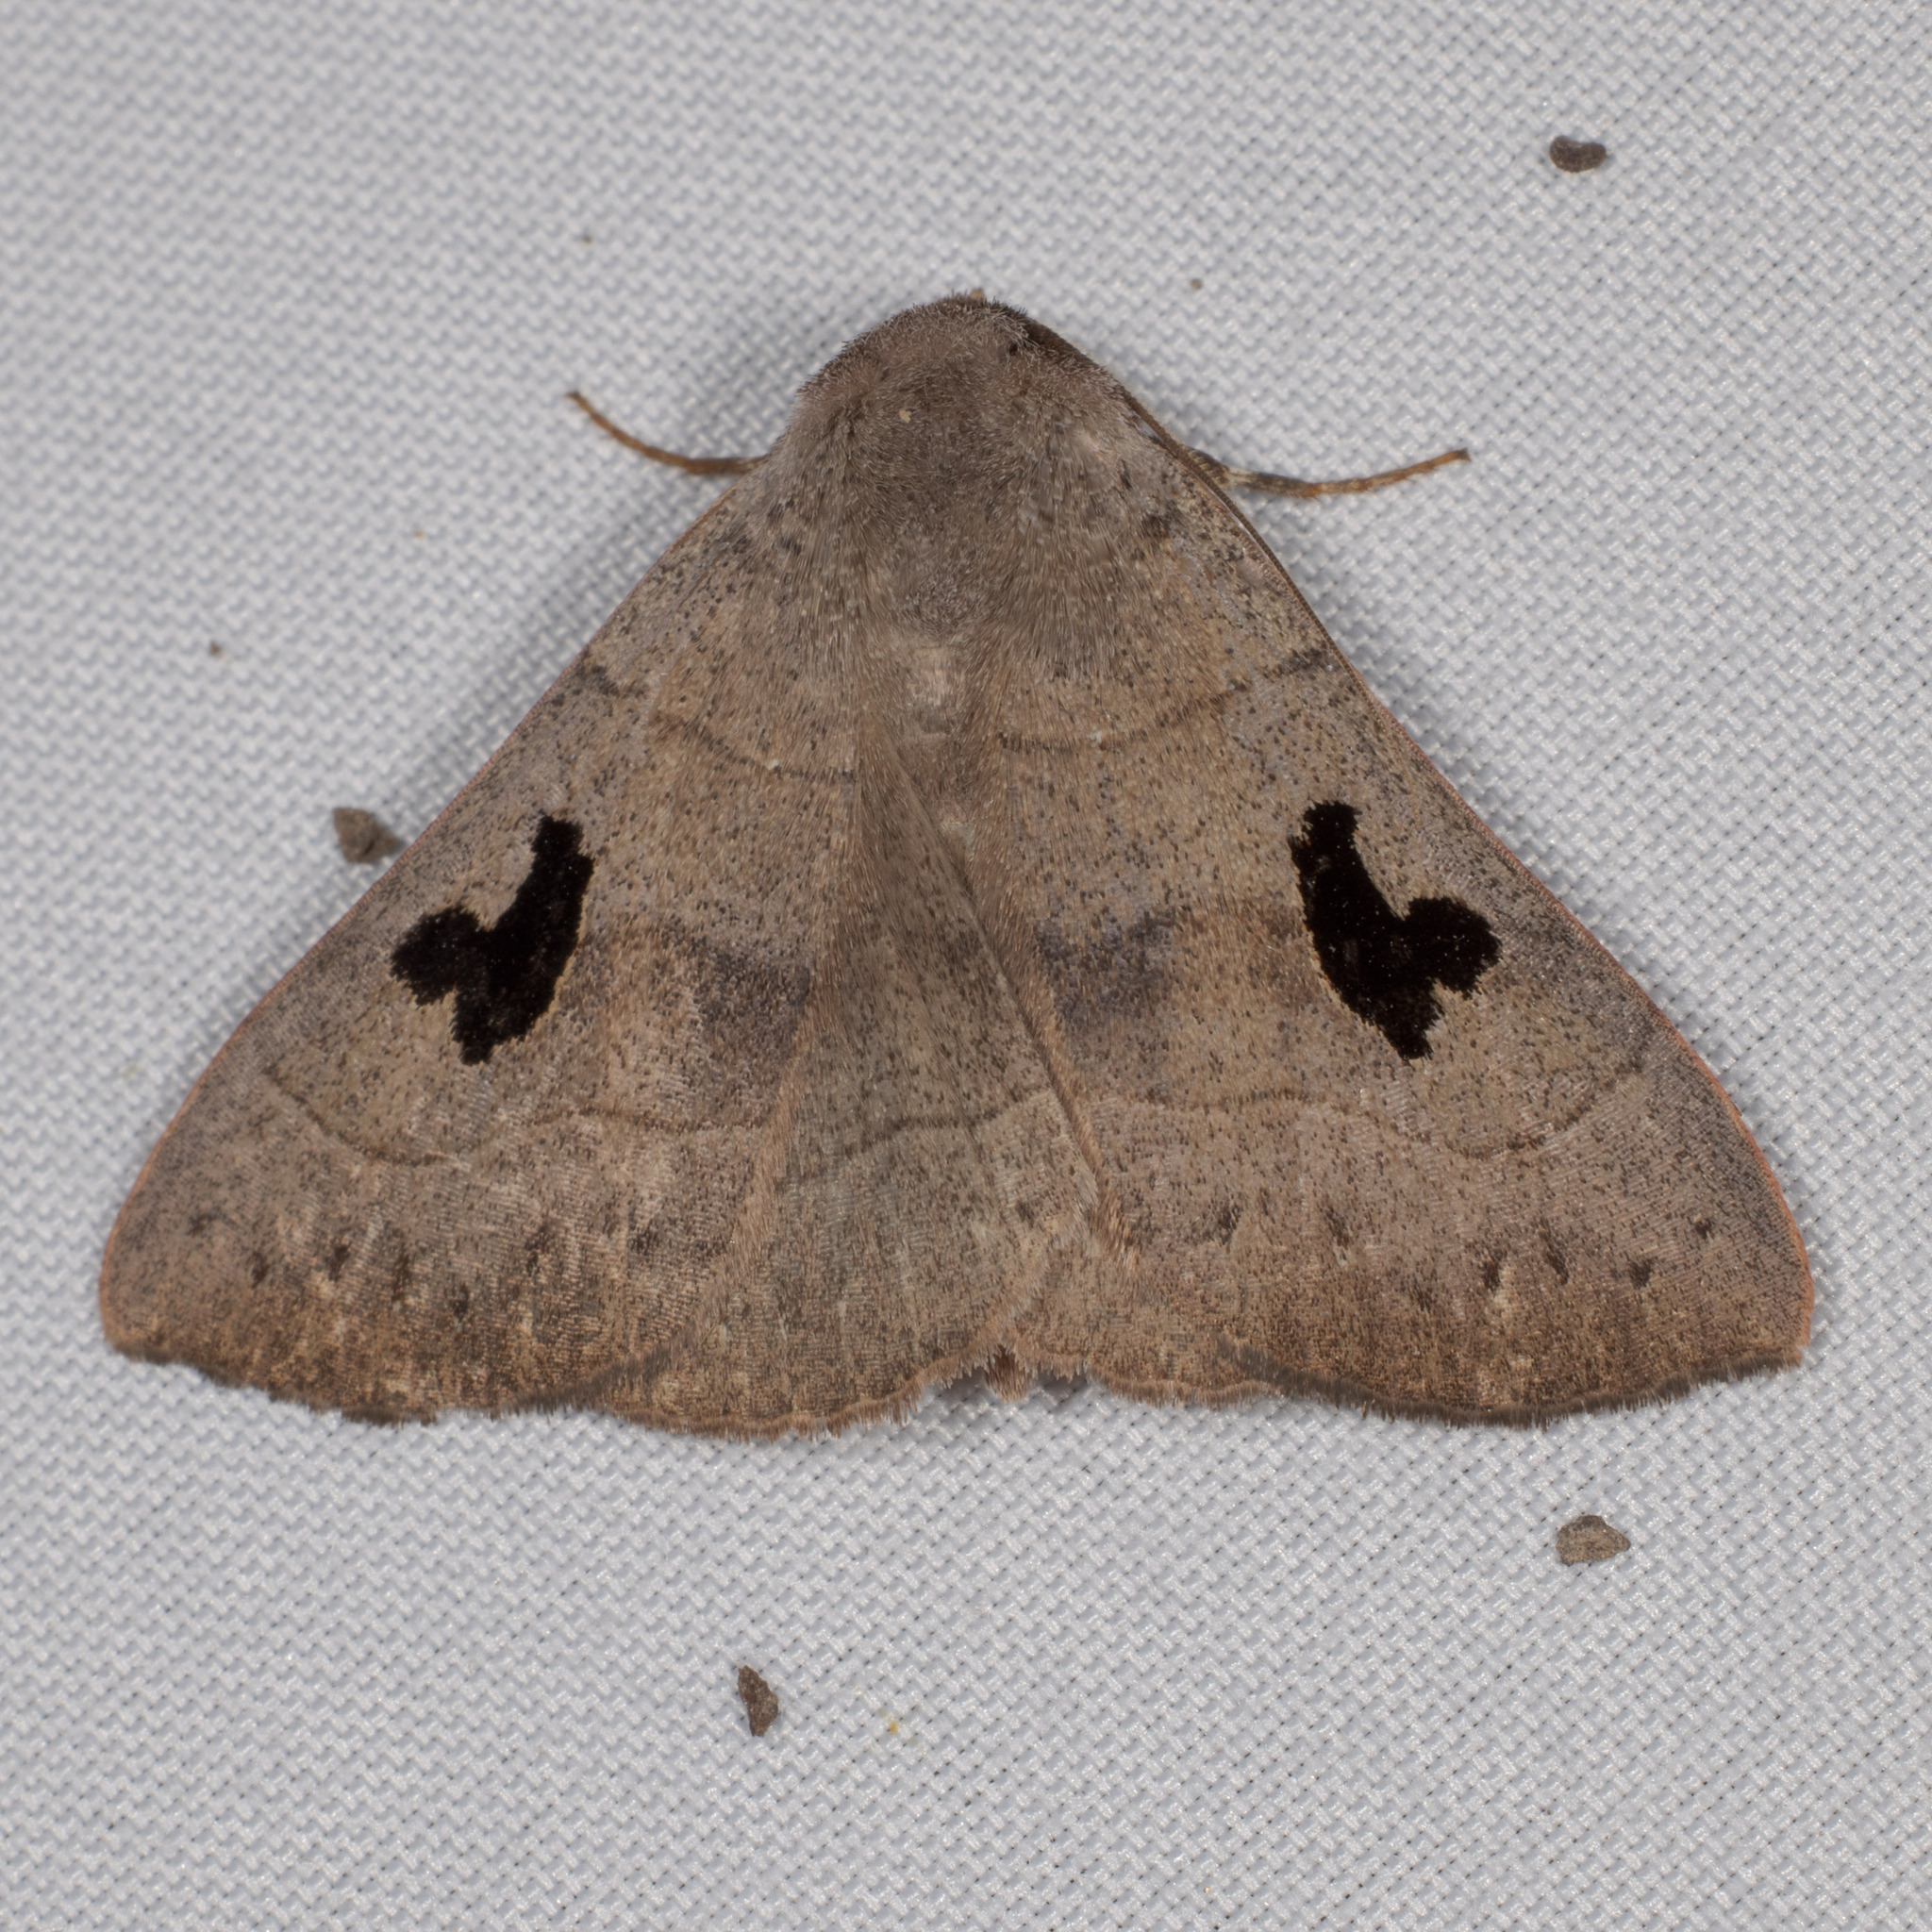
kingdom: Animalia
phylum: Arthropoda
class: Insecta
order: Lepidoptera
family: Erebidae
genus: Panopoda
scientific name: Panopoda carneicosta
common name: Brown panopoda moth
